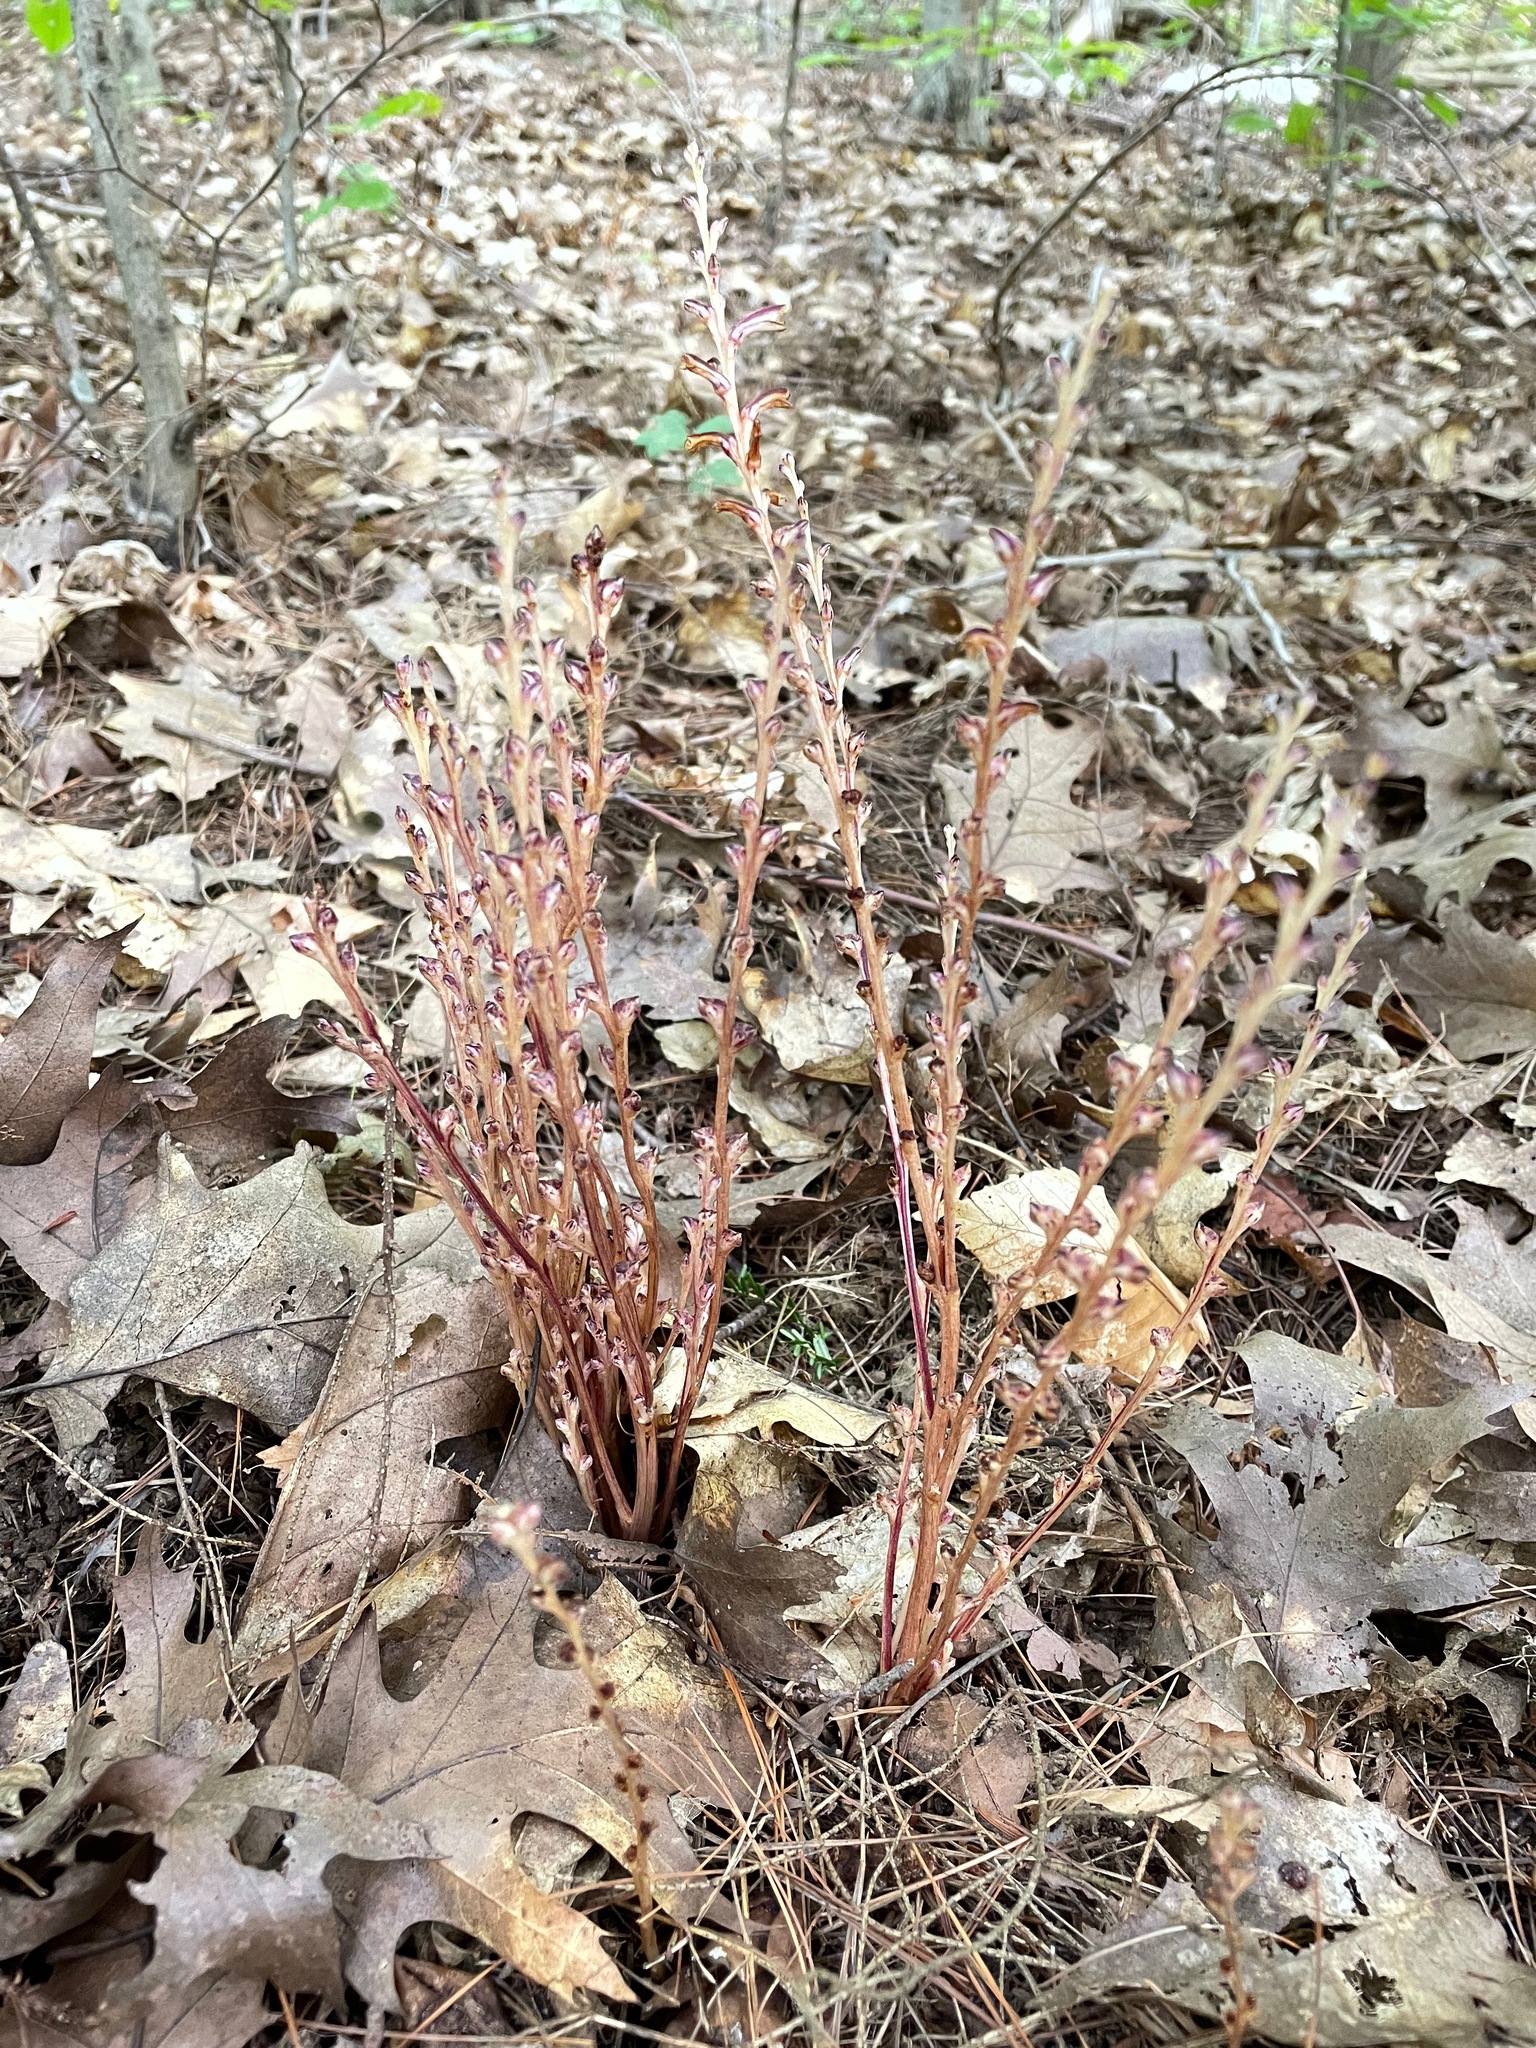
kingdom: Plantae
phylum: Tracheophyta
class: Magnoliopsida
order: Lamiales
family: Orobanchaceae
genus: Epifagus
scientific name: Epifagus virginiana
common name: Beechdrops
